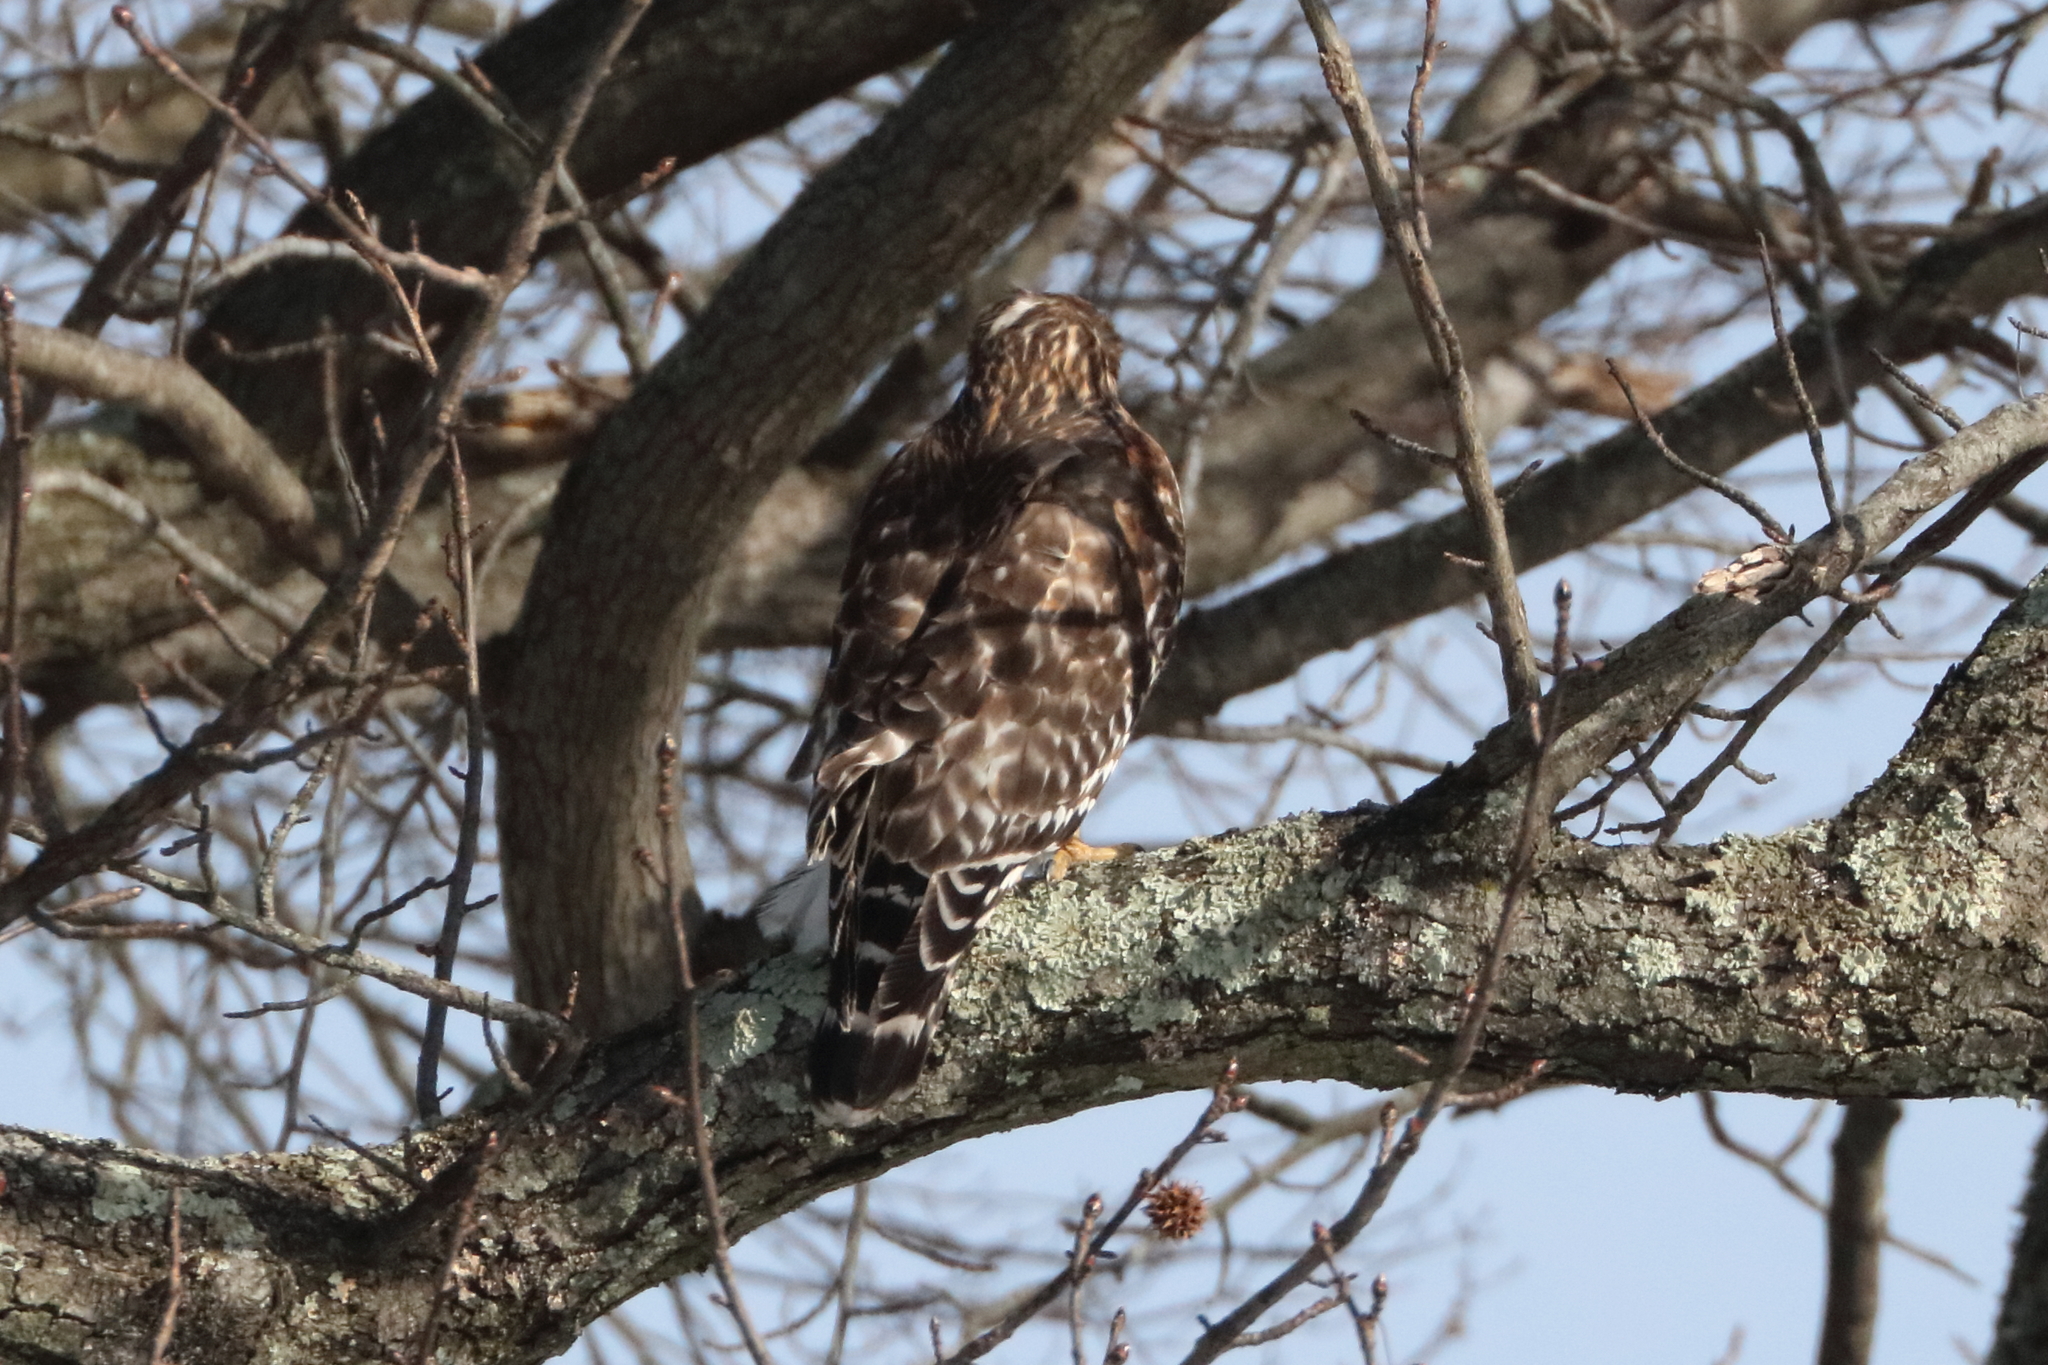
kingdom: Animalia
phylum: Chordata
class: Aves
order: Accipitriformes
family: Accipitridae
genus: Buteo
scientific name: Buteo lineatus
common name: Red-shouldered hawk
